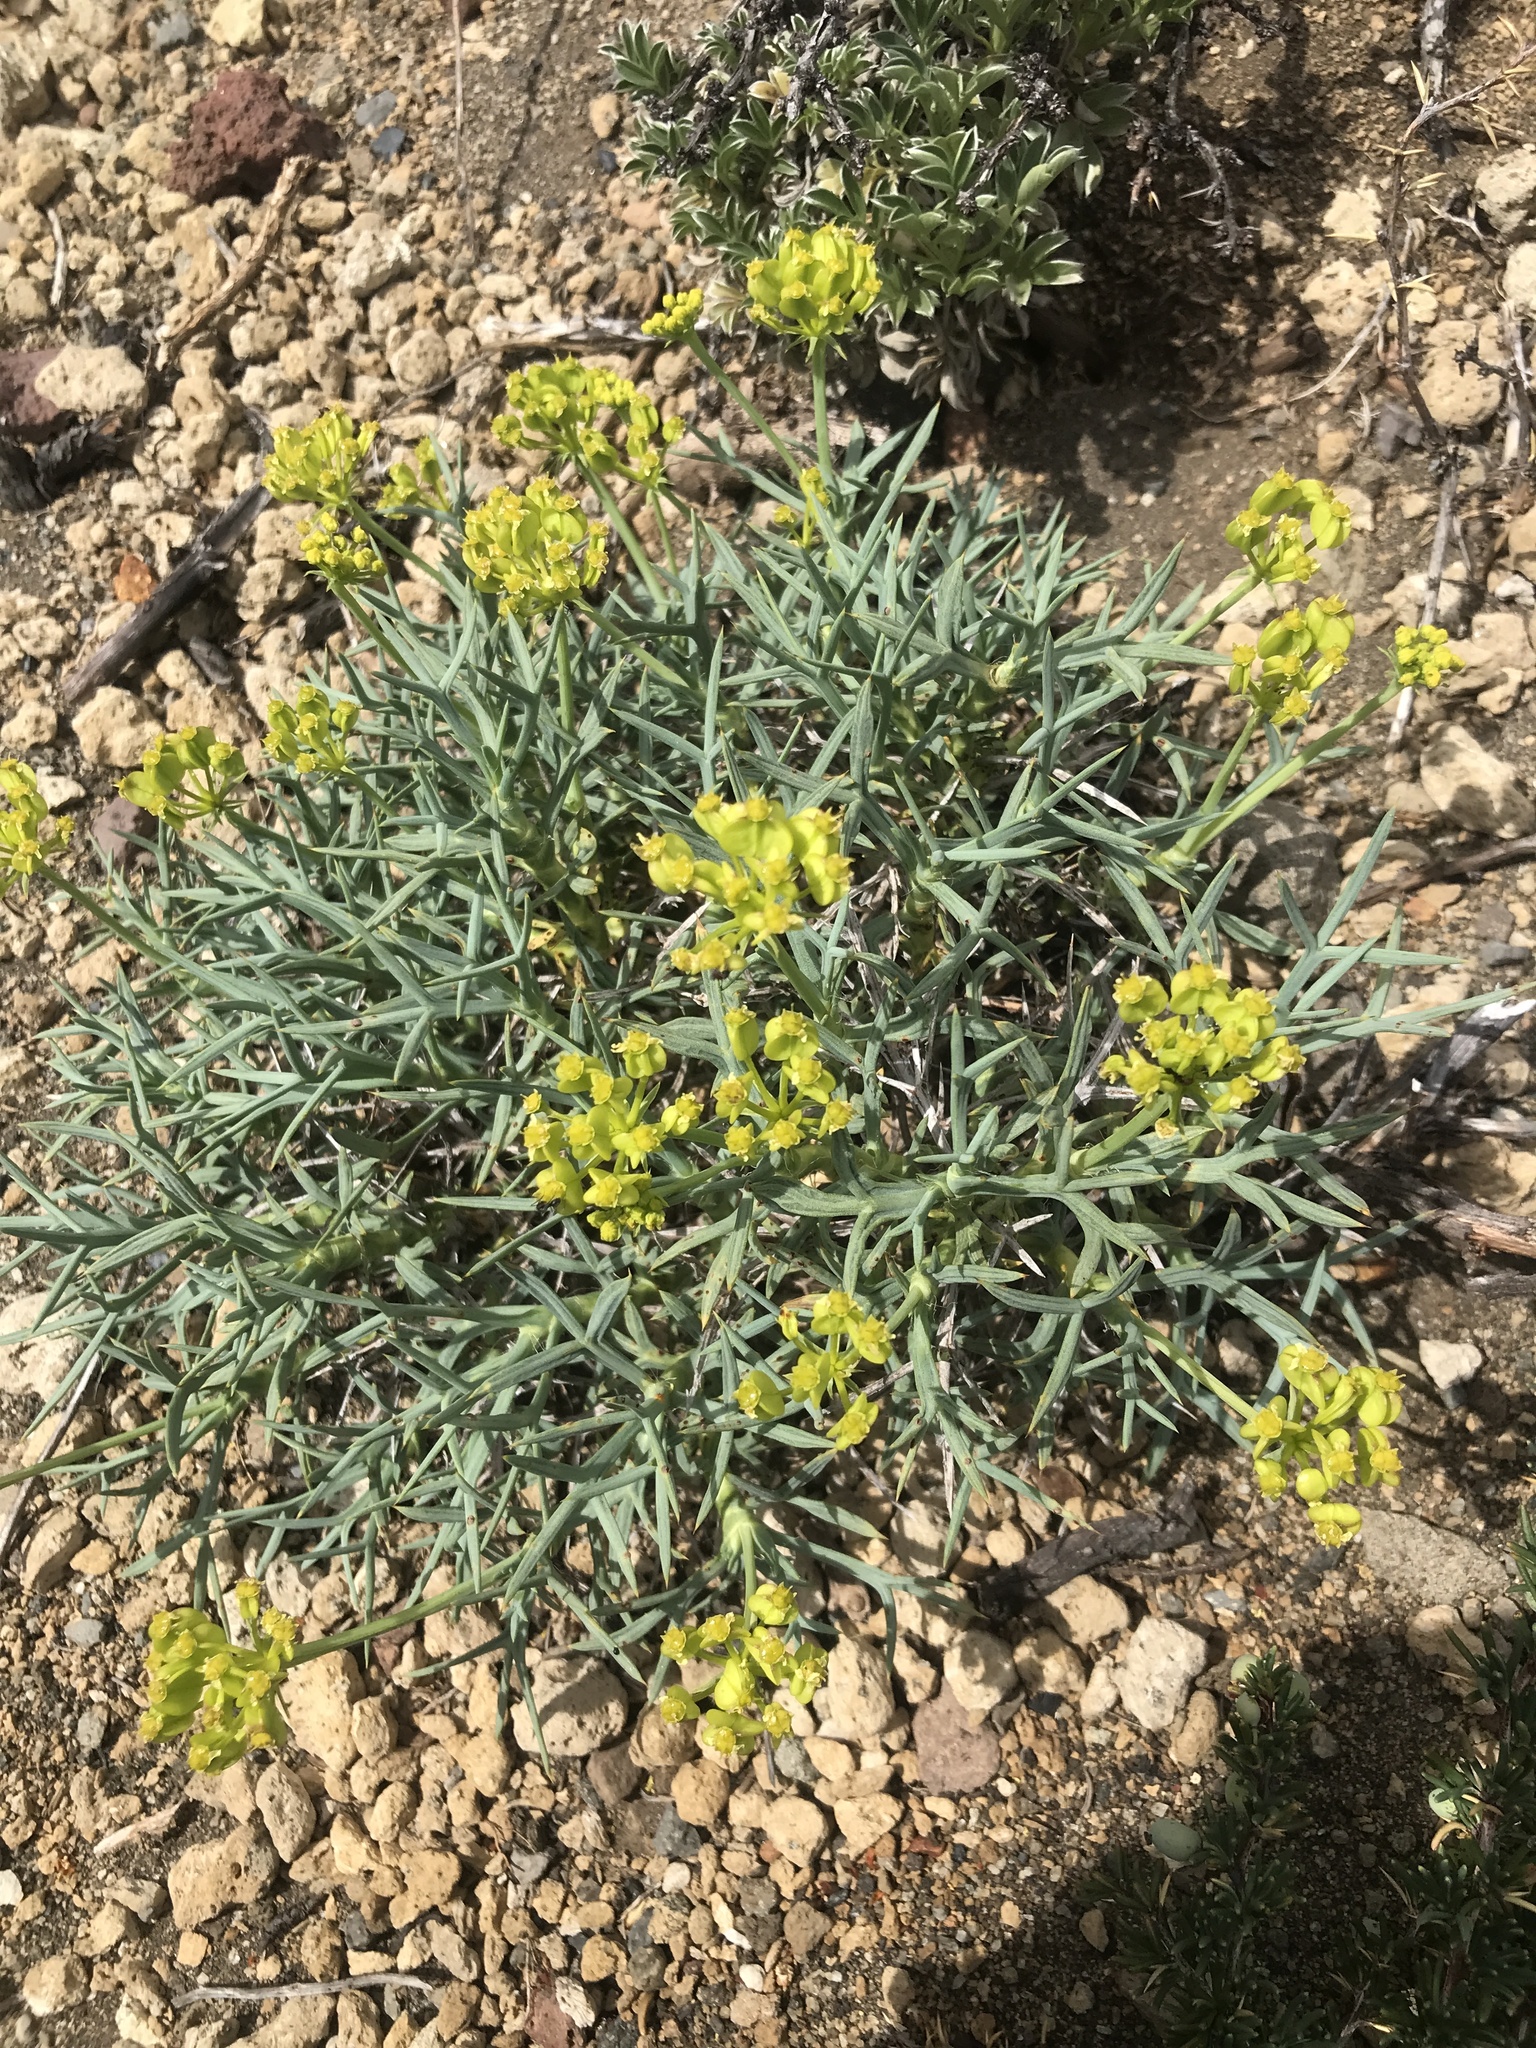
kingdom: Plantae
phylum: Tracheophyta
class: Magnoliopsida
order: Apiales
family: Apiaceae
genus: Azorella
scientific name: Azorella prolifera
